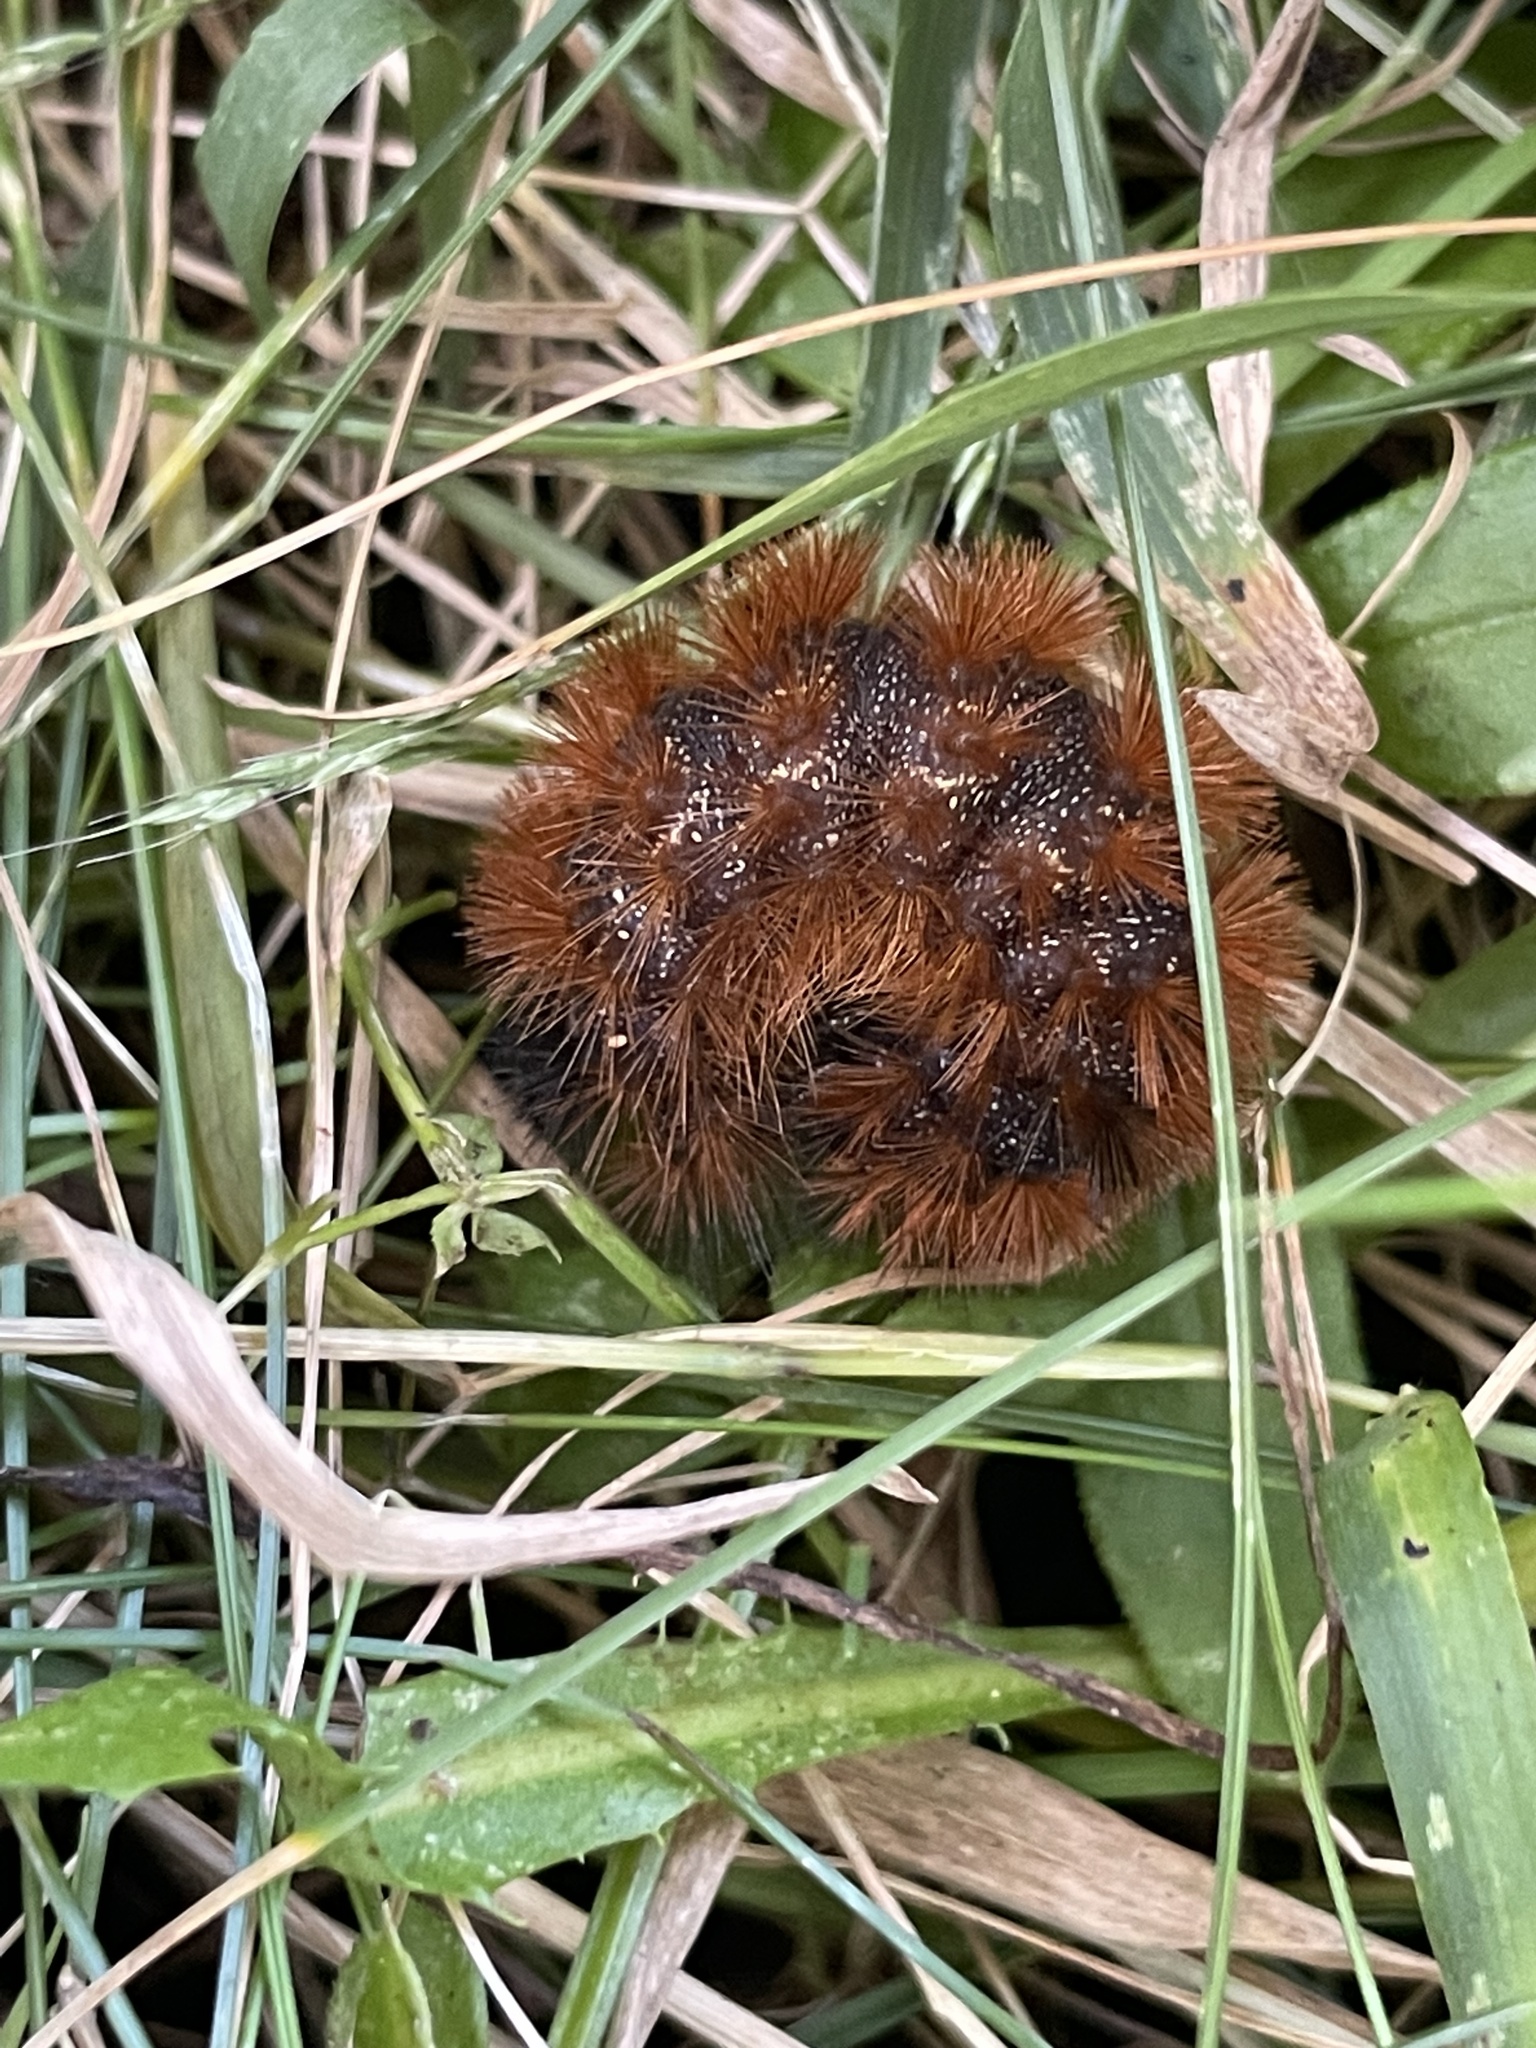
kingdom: Animalia
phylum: Arthropoda
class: Insecta
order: Lepidoptera
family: Erebidae
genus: Pyrrharctia
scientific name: Pyrrharctia isabella
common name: Isabella tiger moth
